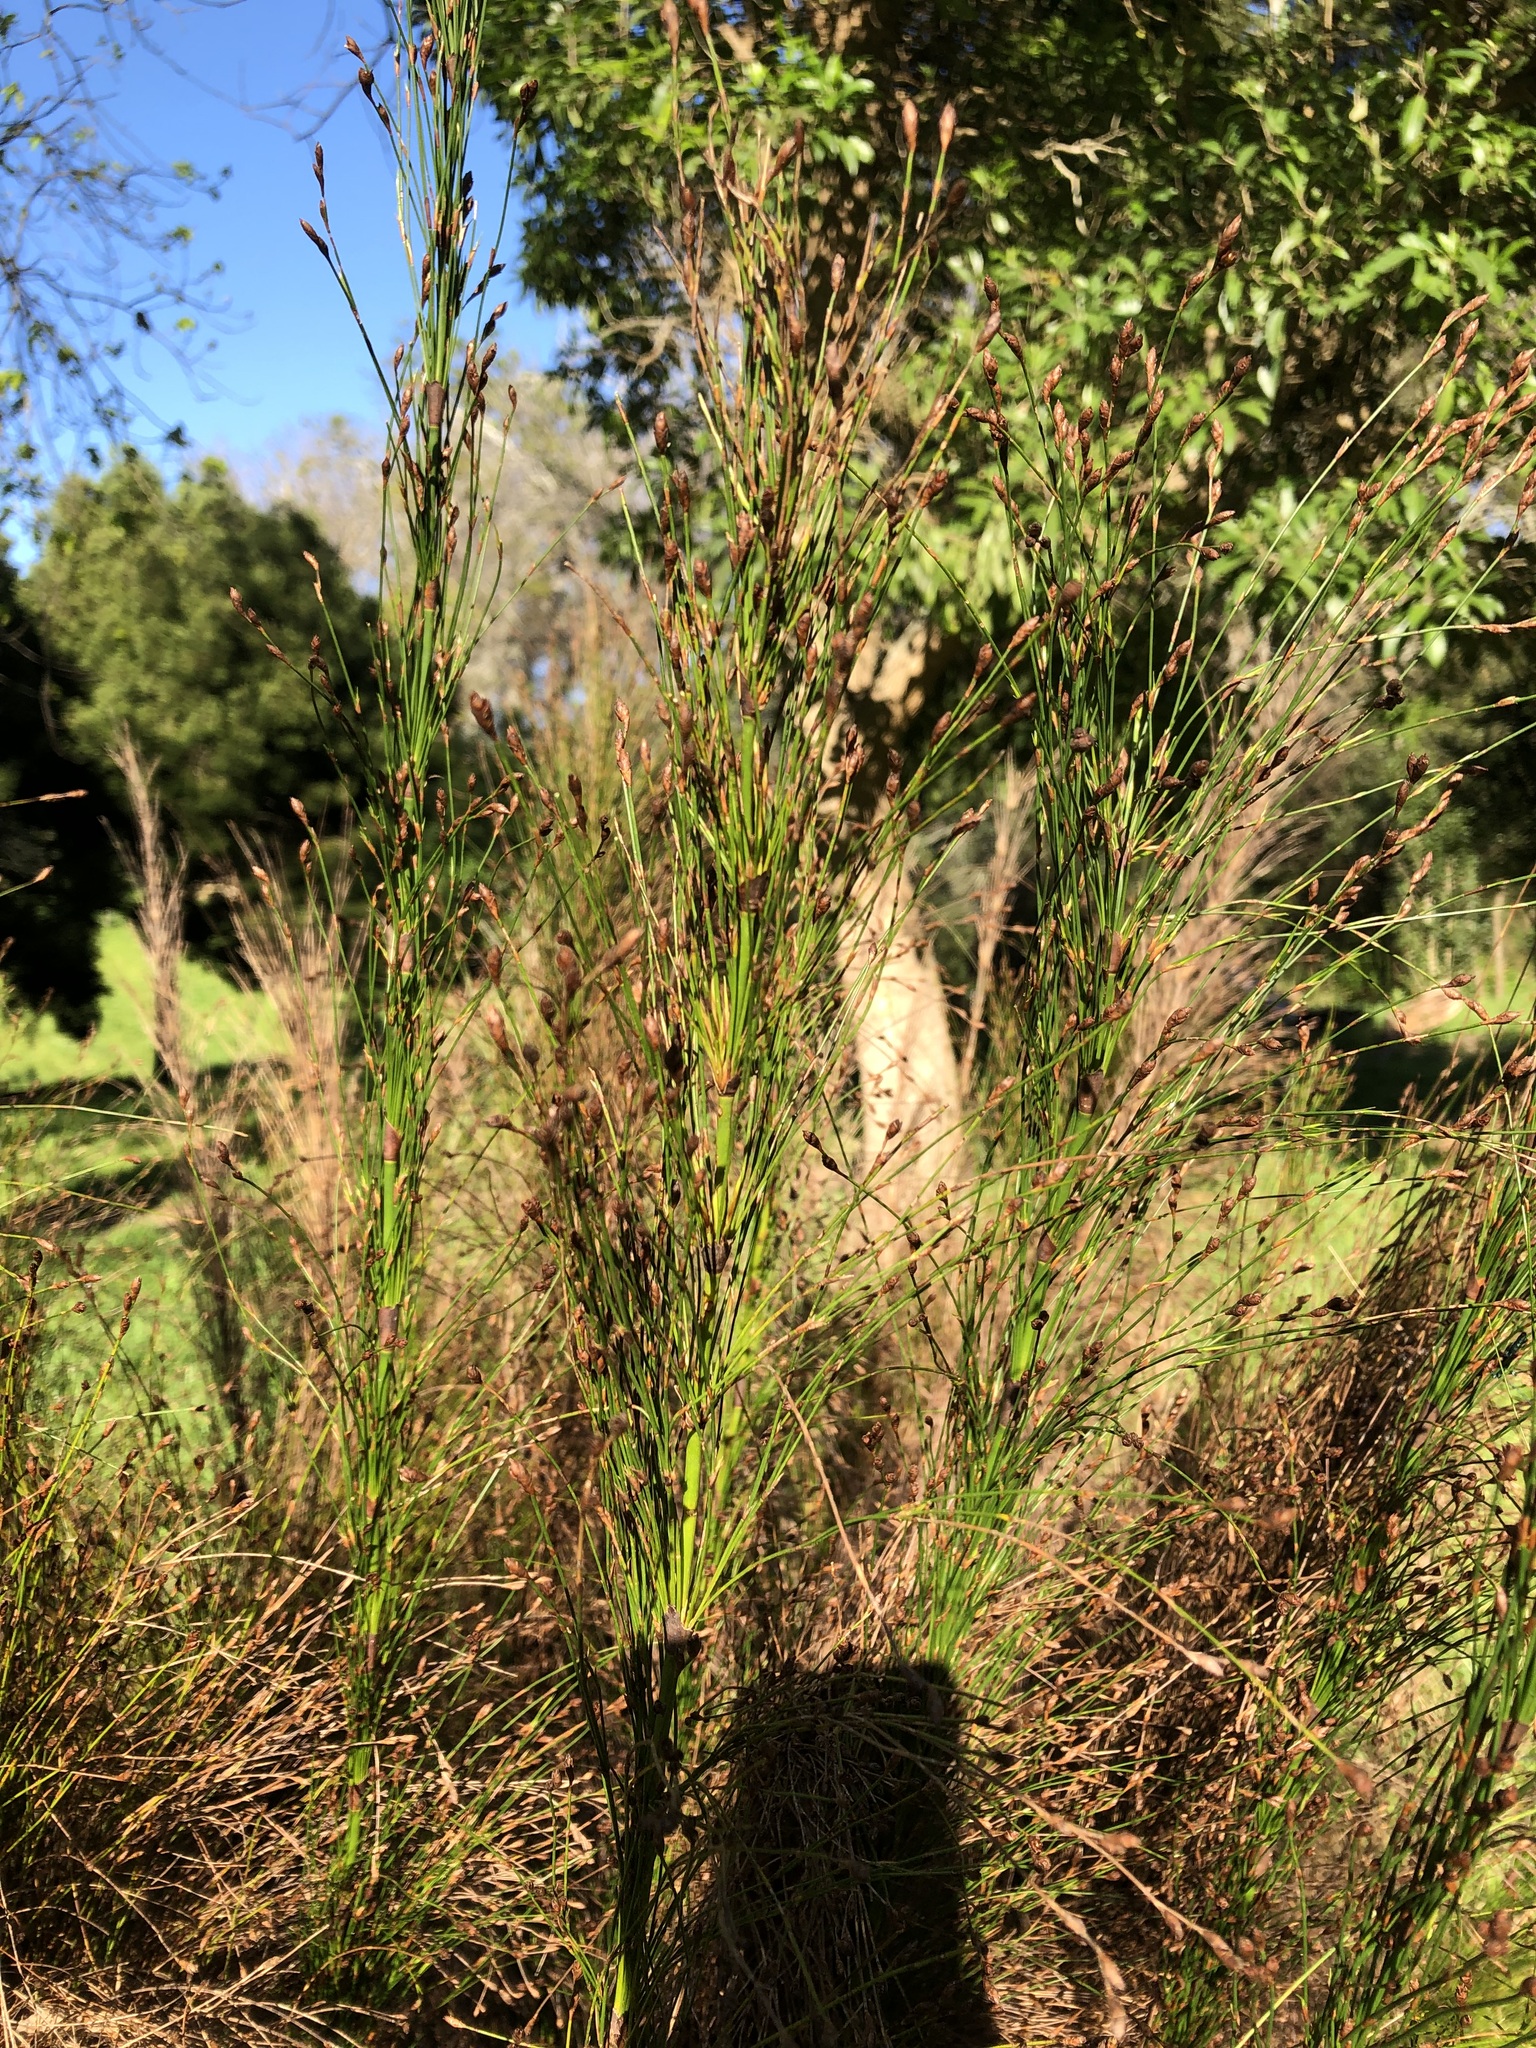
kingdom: Plantae
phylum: Tracheophyta
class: Liliopsida
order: Poales
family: Restionaceae
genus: Restio
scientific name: Restio paniculatus
